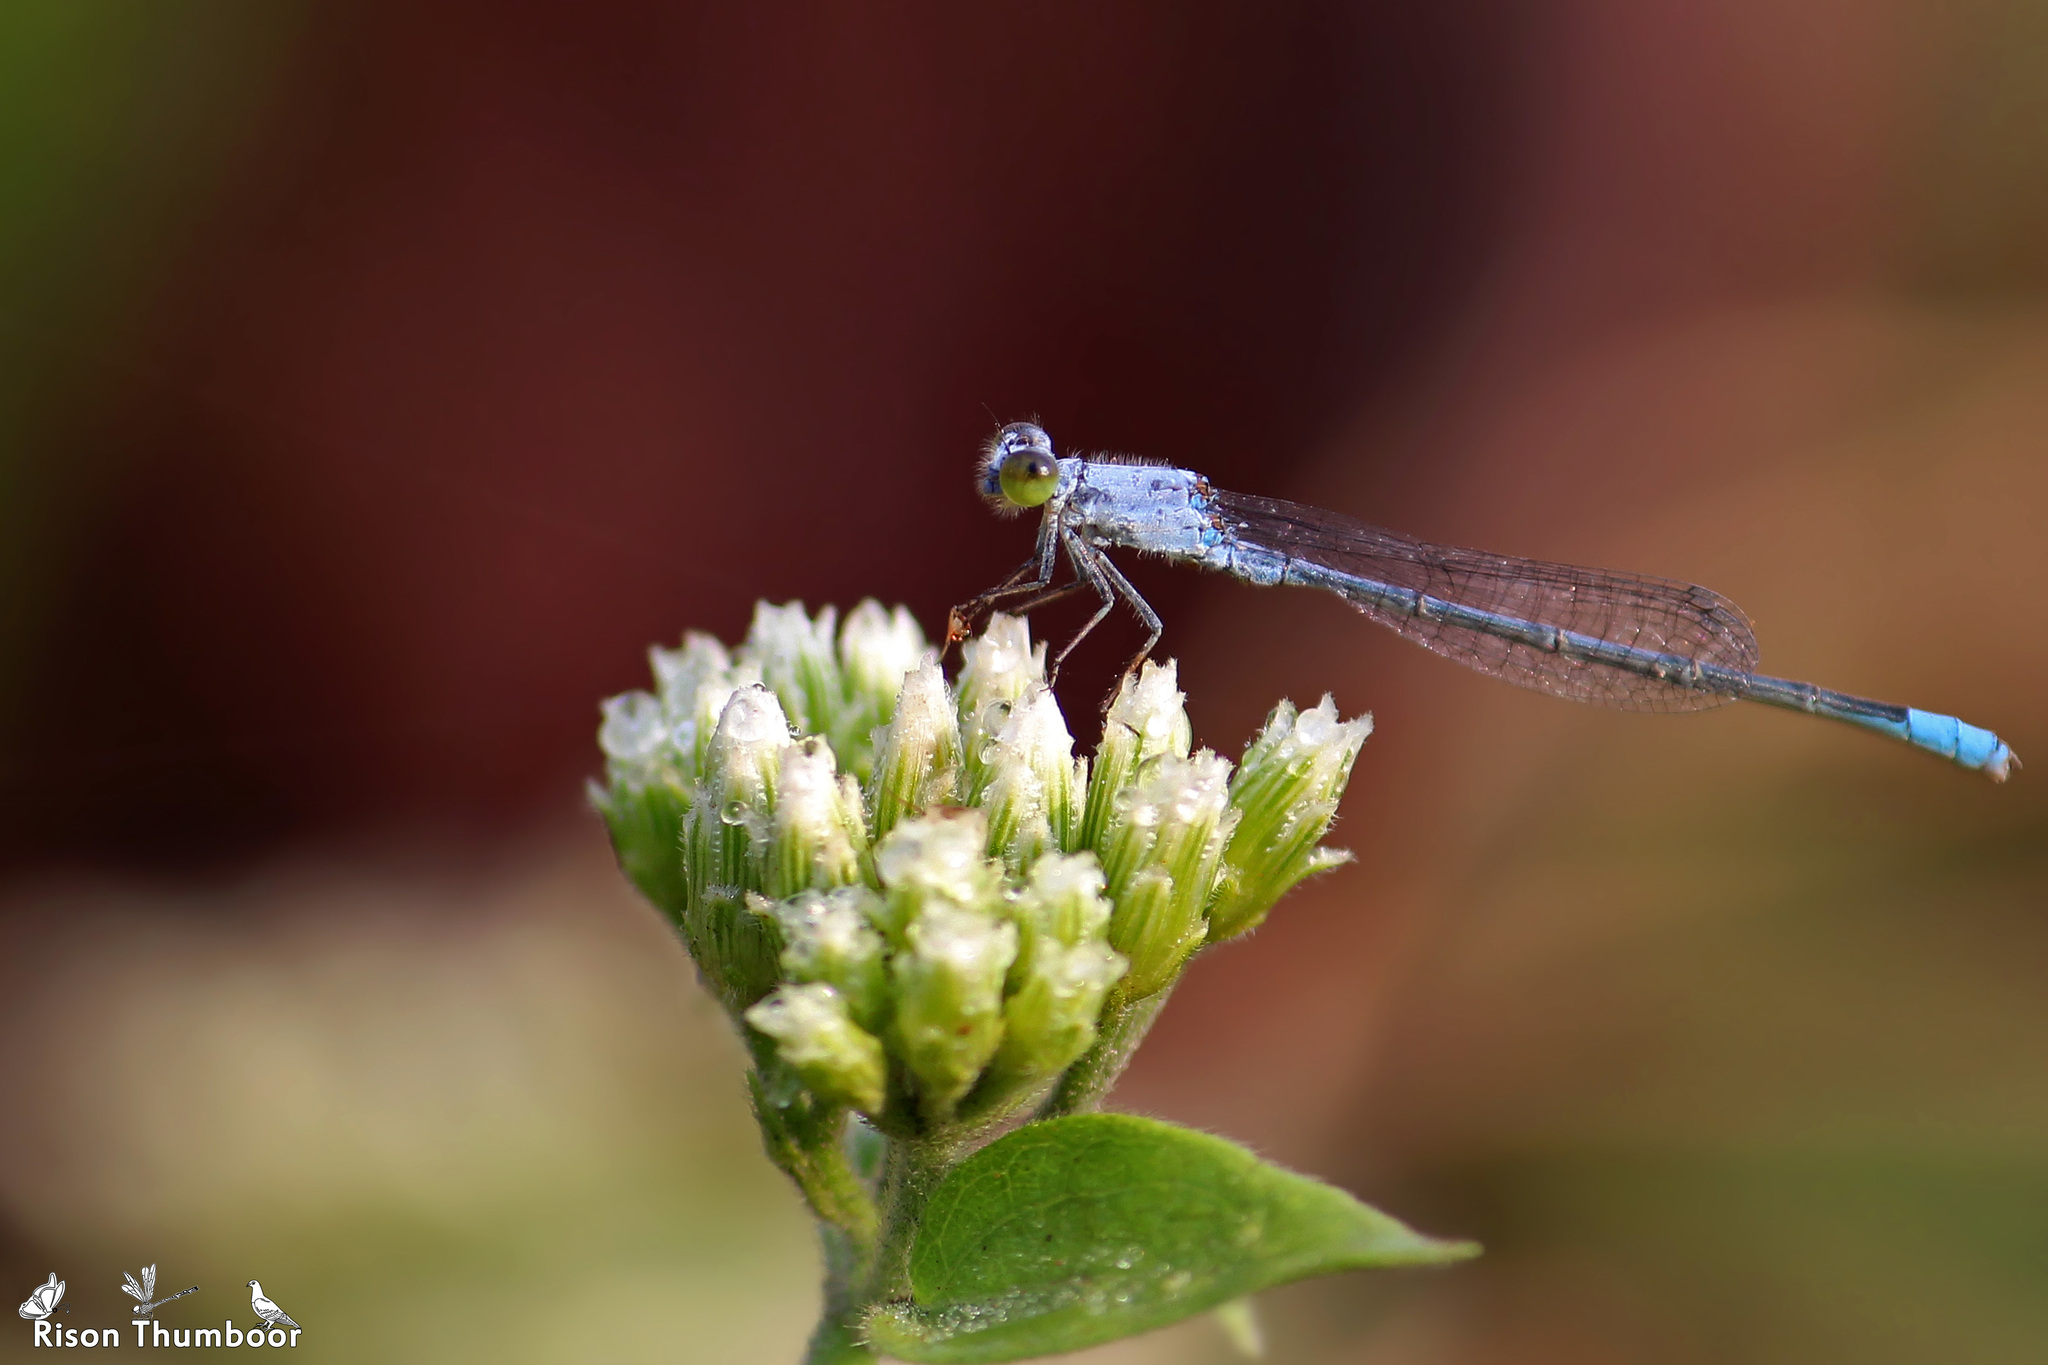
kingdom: Animalia
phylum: Arthropoda
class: Insecta
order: Odonata
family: Coenagrionidae
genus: Paracercion
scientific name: Paracercion calamorum
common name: Dusky lilysquatter
